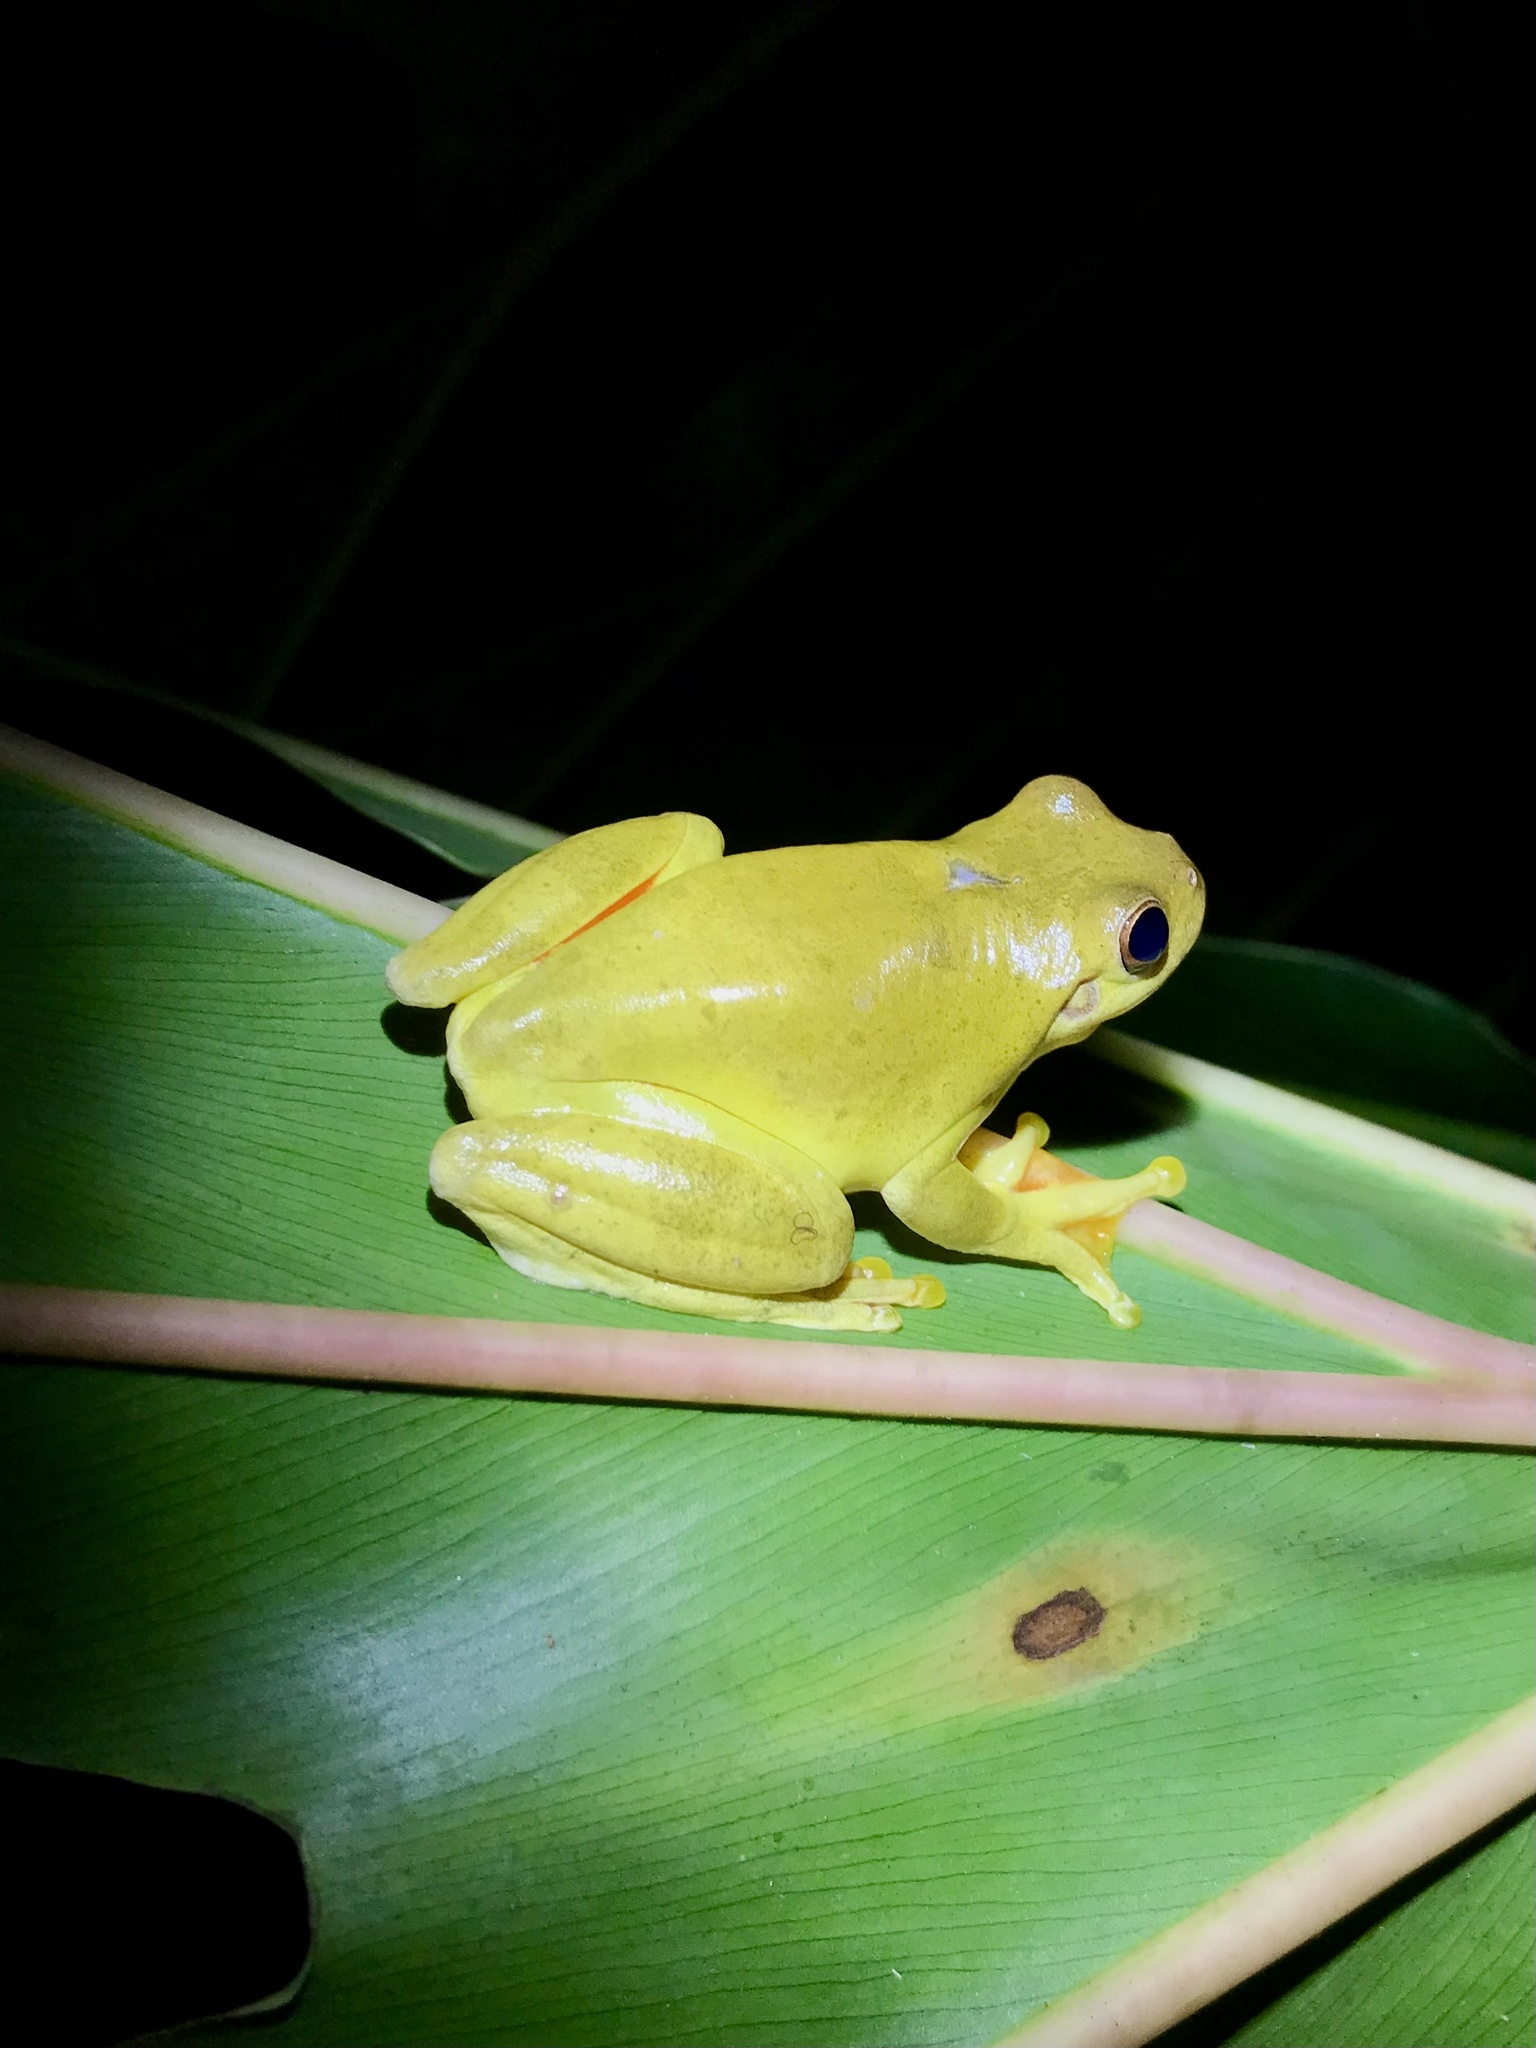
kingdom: Animalia
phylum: Chordata
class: Amphibia
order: Anura
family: Hylidae
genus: Tlalocohyla
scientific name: Tlalocohyla loquax
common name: Loquacious treefrog
